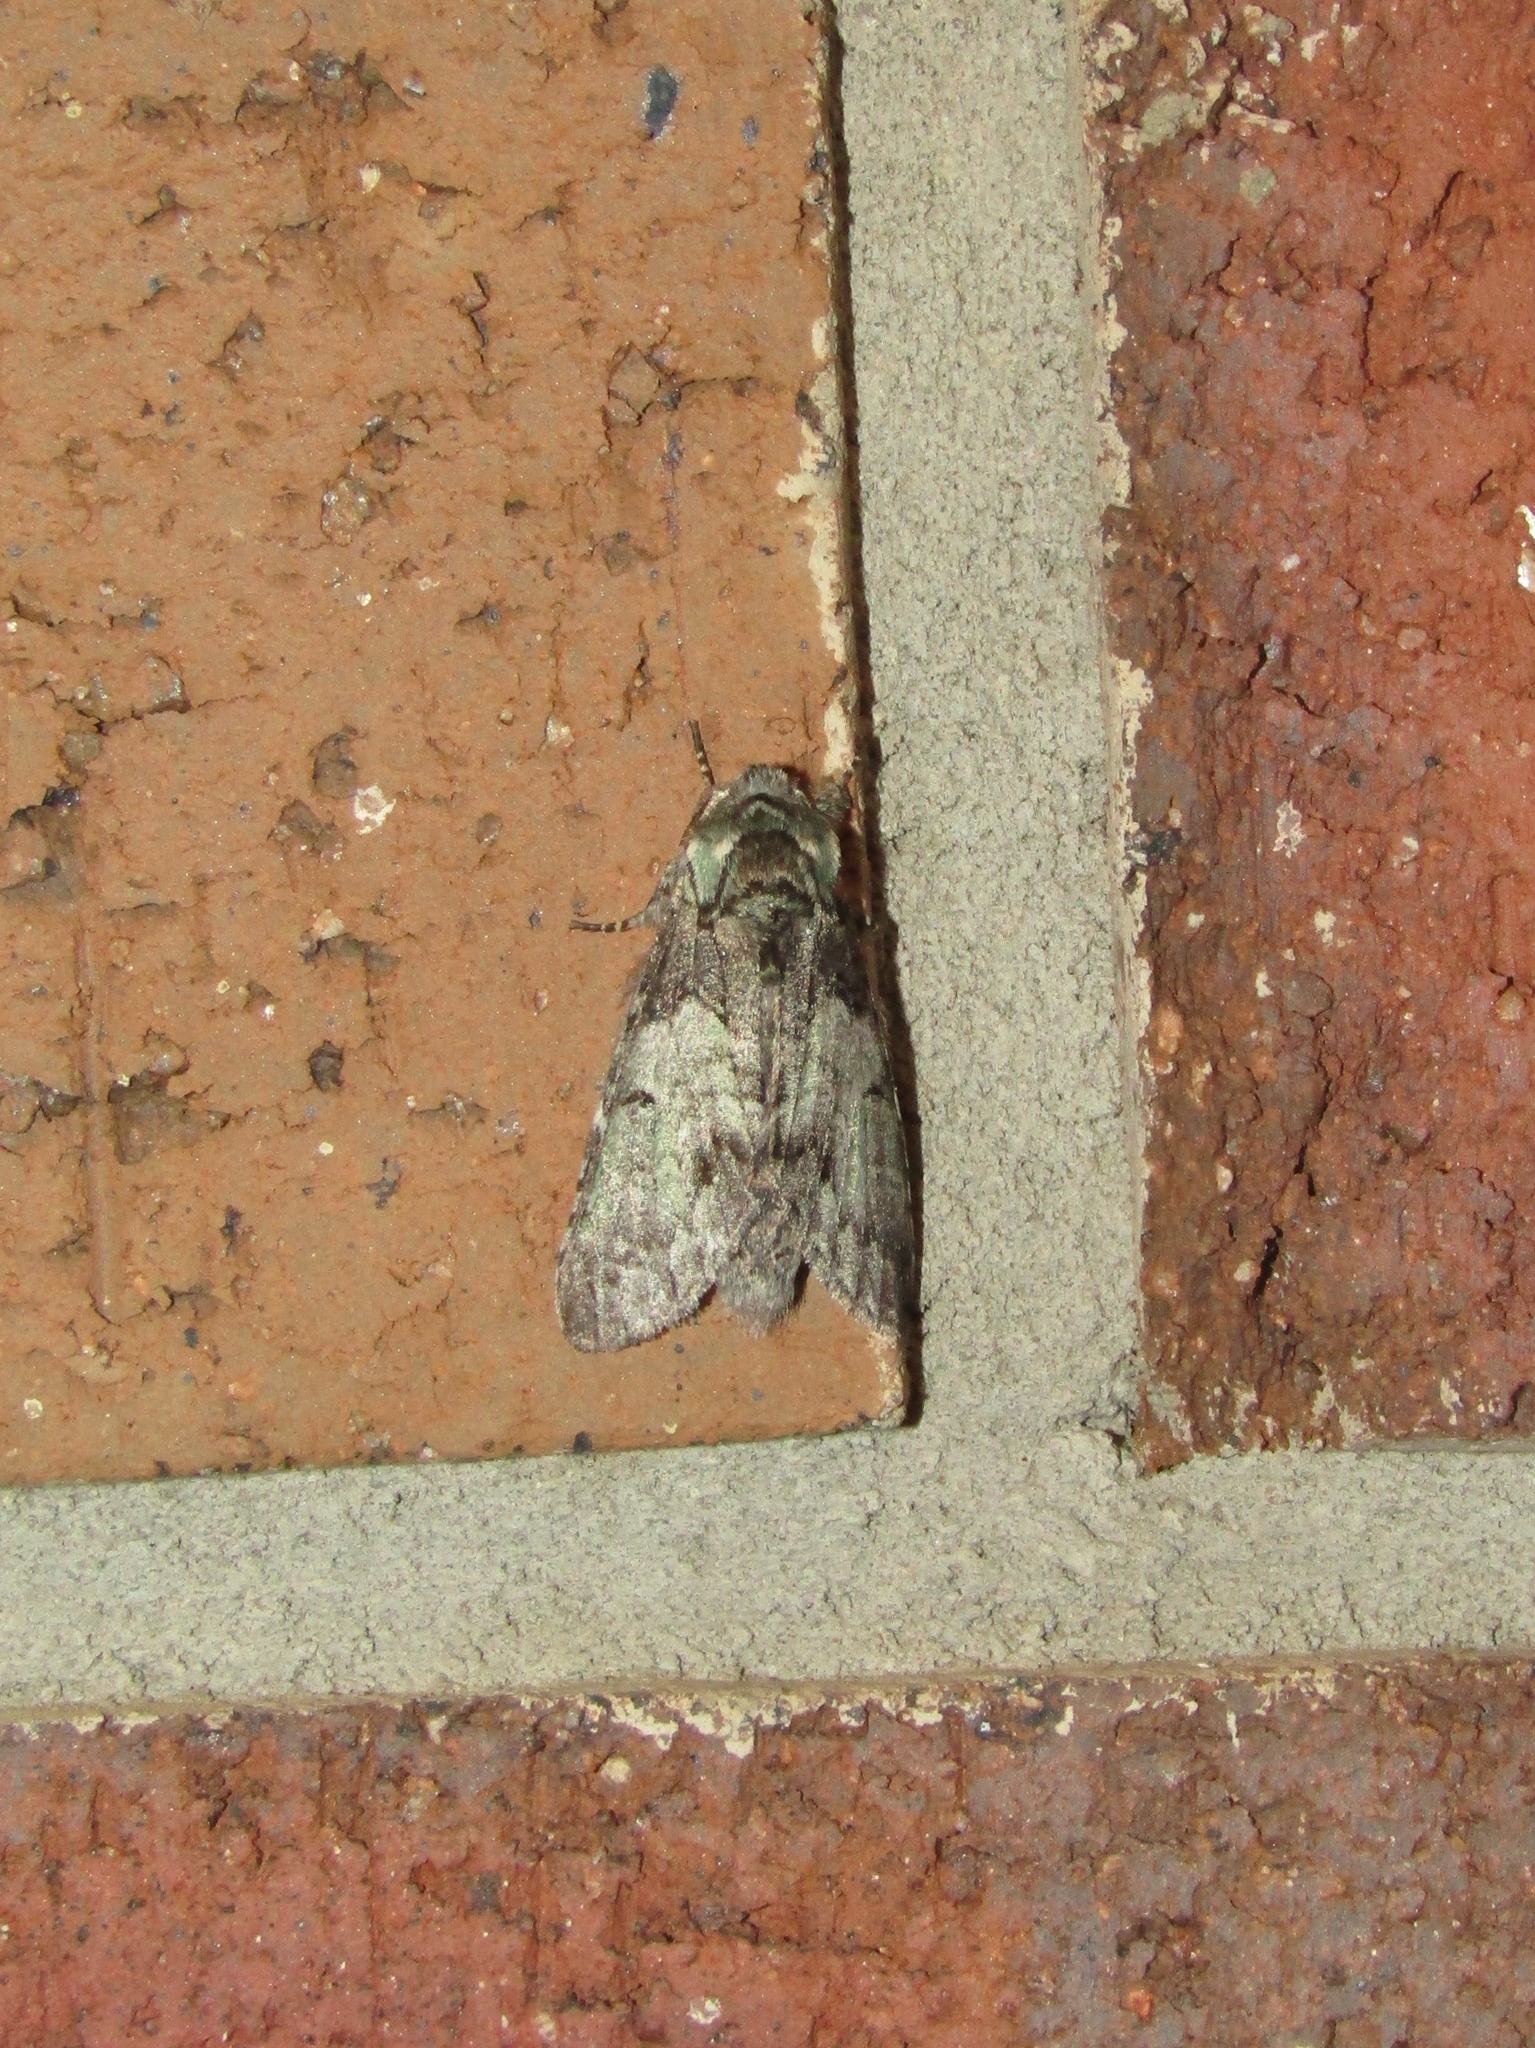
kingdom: Animalia
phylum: Arthropoda
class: Insecta
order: Lepidoptera
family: Notodontidae
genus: Macrurocampa
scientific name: Macrurocampa marthesia
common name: Mottled prominent
